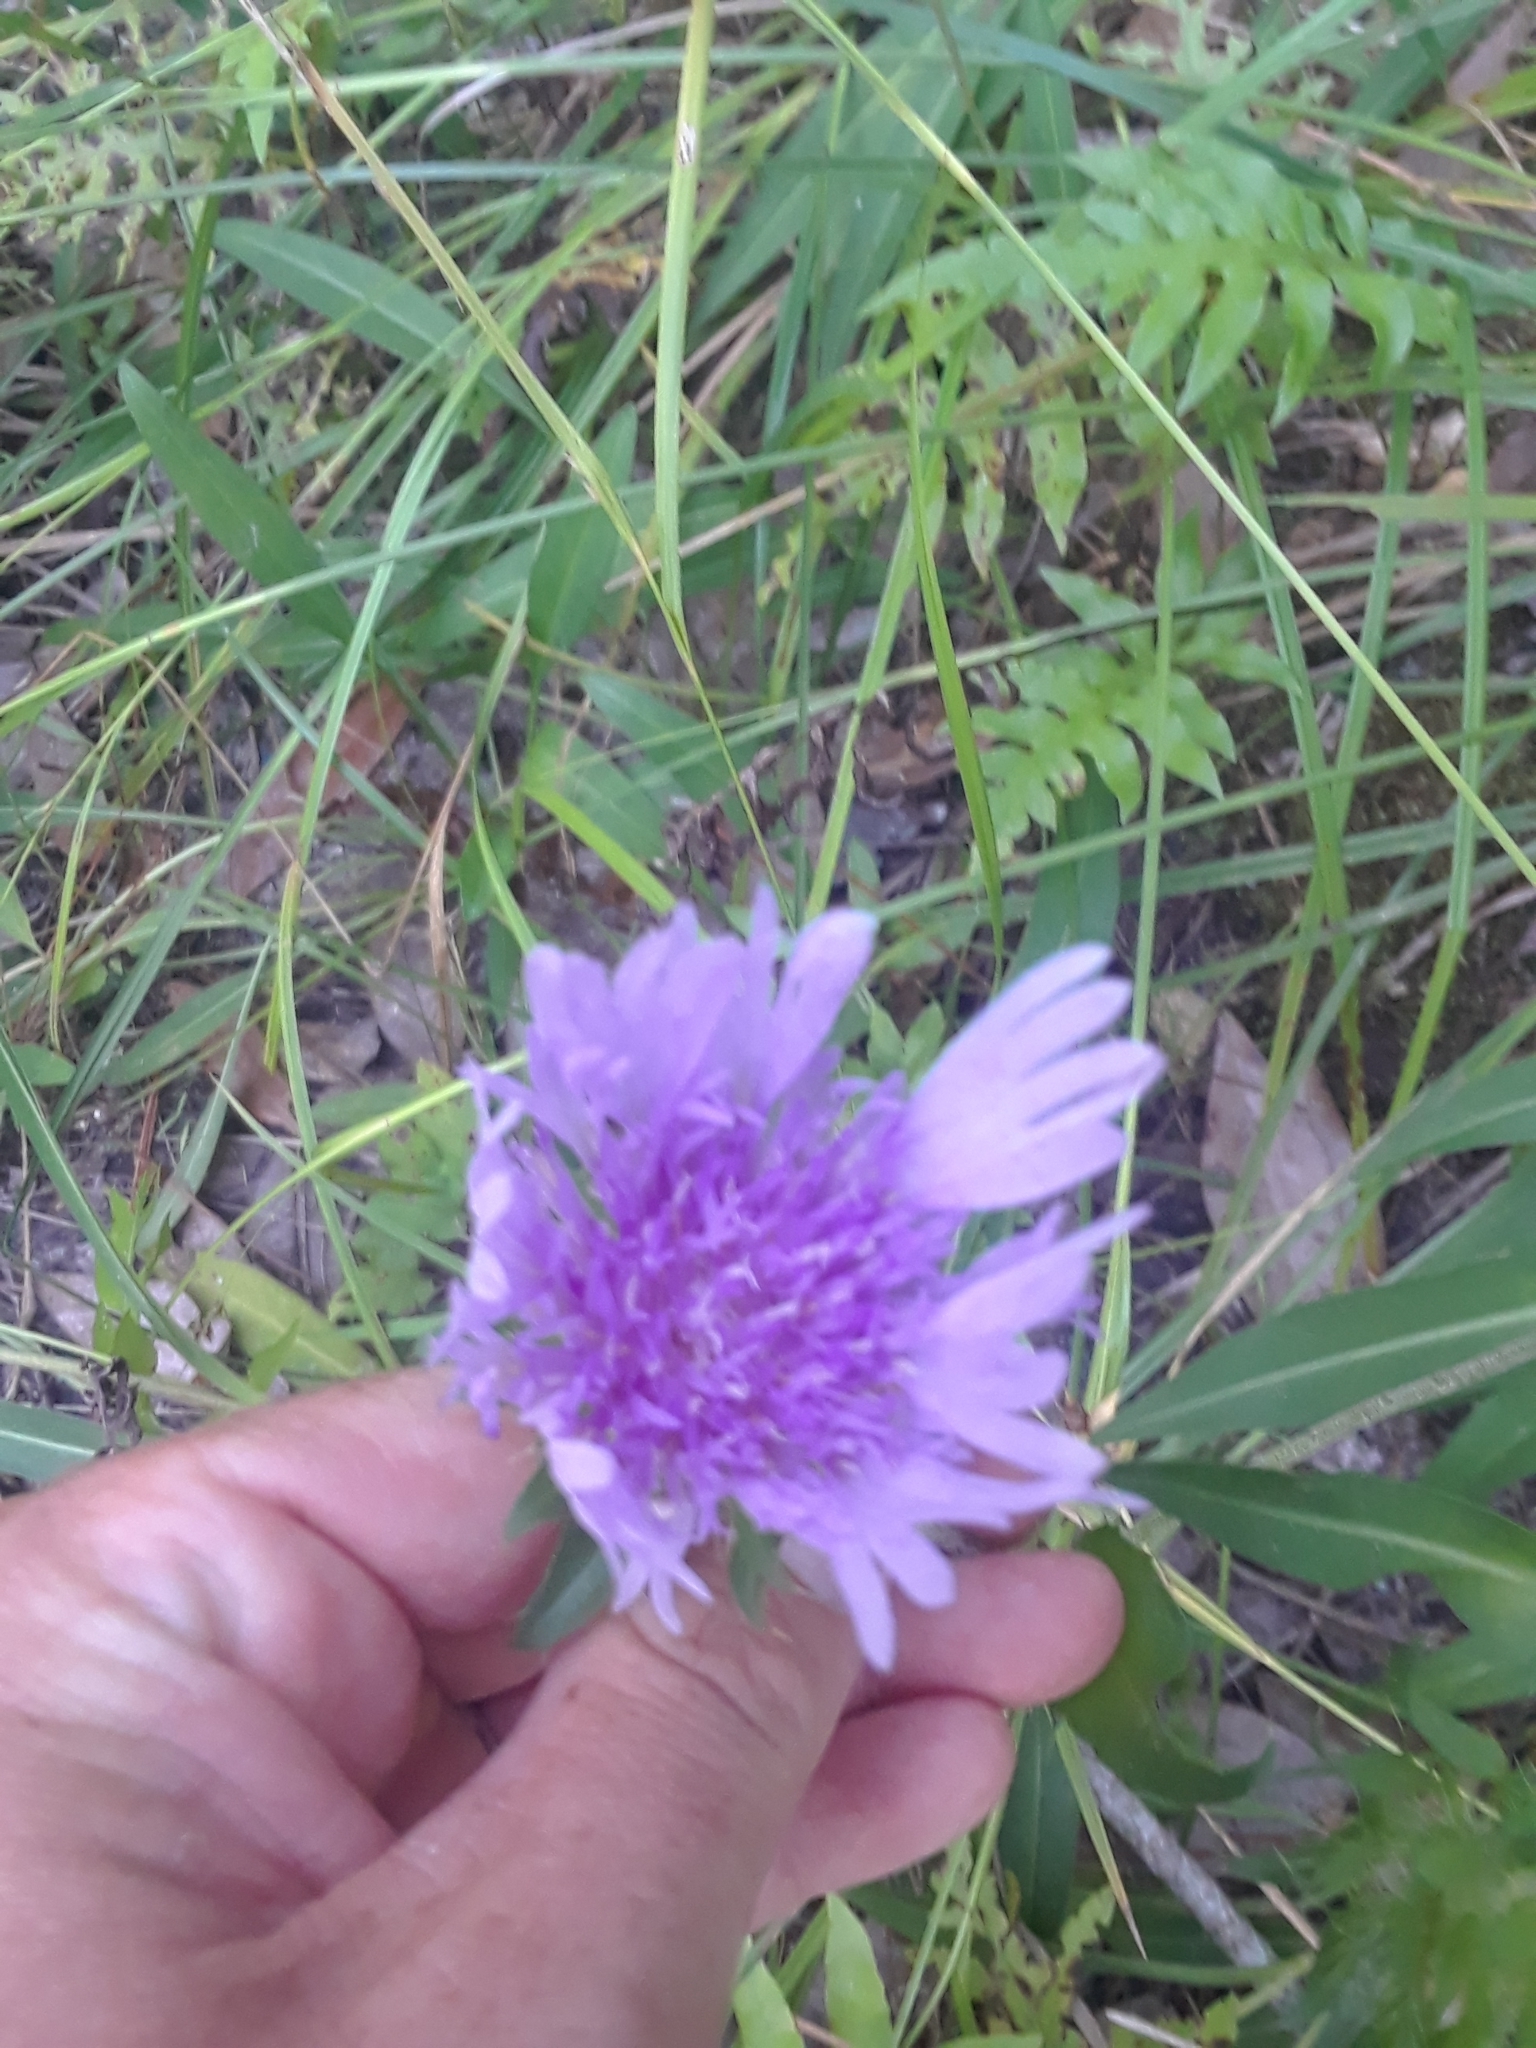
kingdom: Plantae
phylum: Tracheophyta
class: Magnoliopsida
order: Asterales
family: Asteraceae
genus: Stokesia
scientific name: Stokesia laevis
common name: Stokes'-aster
